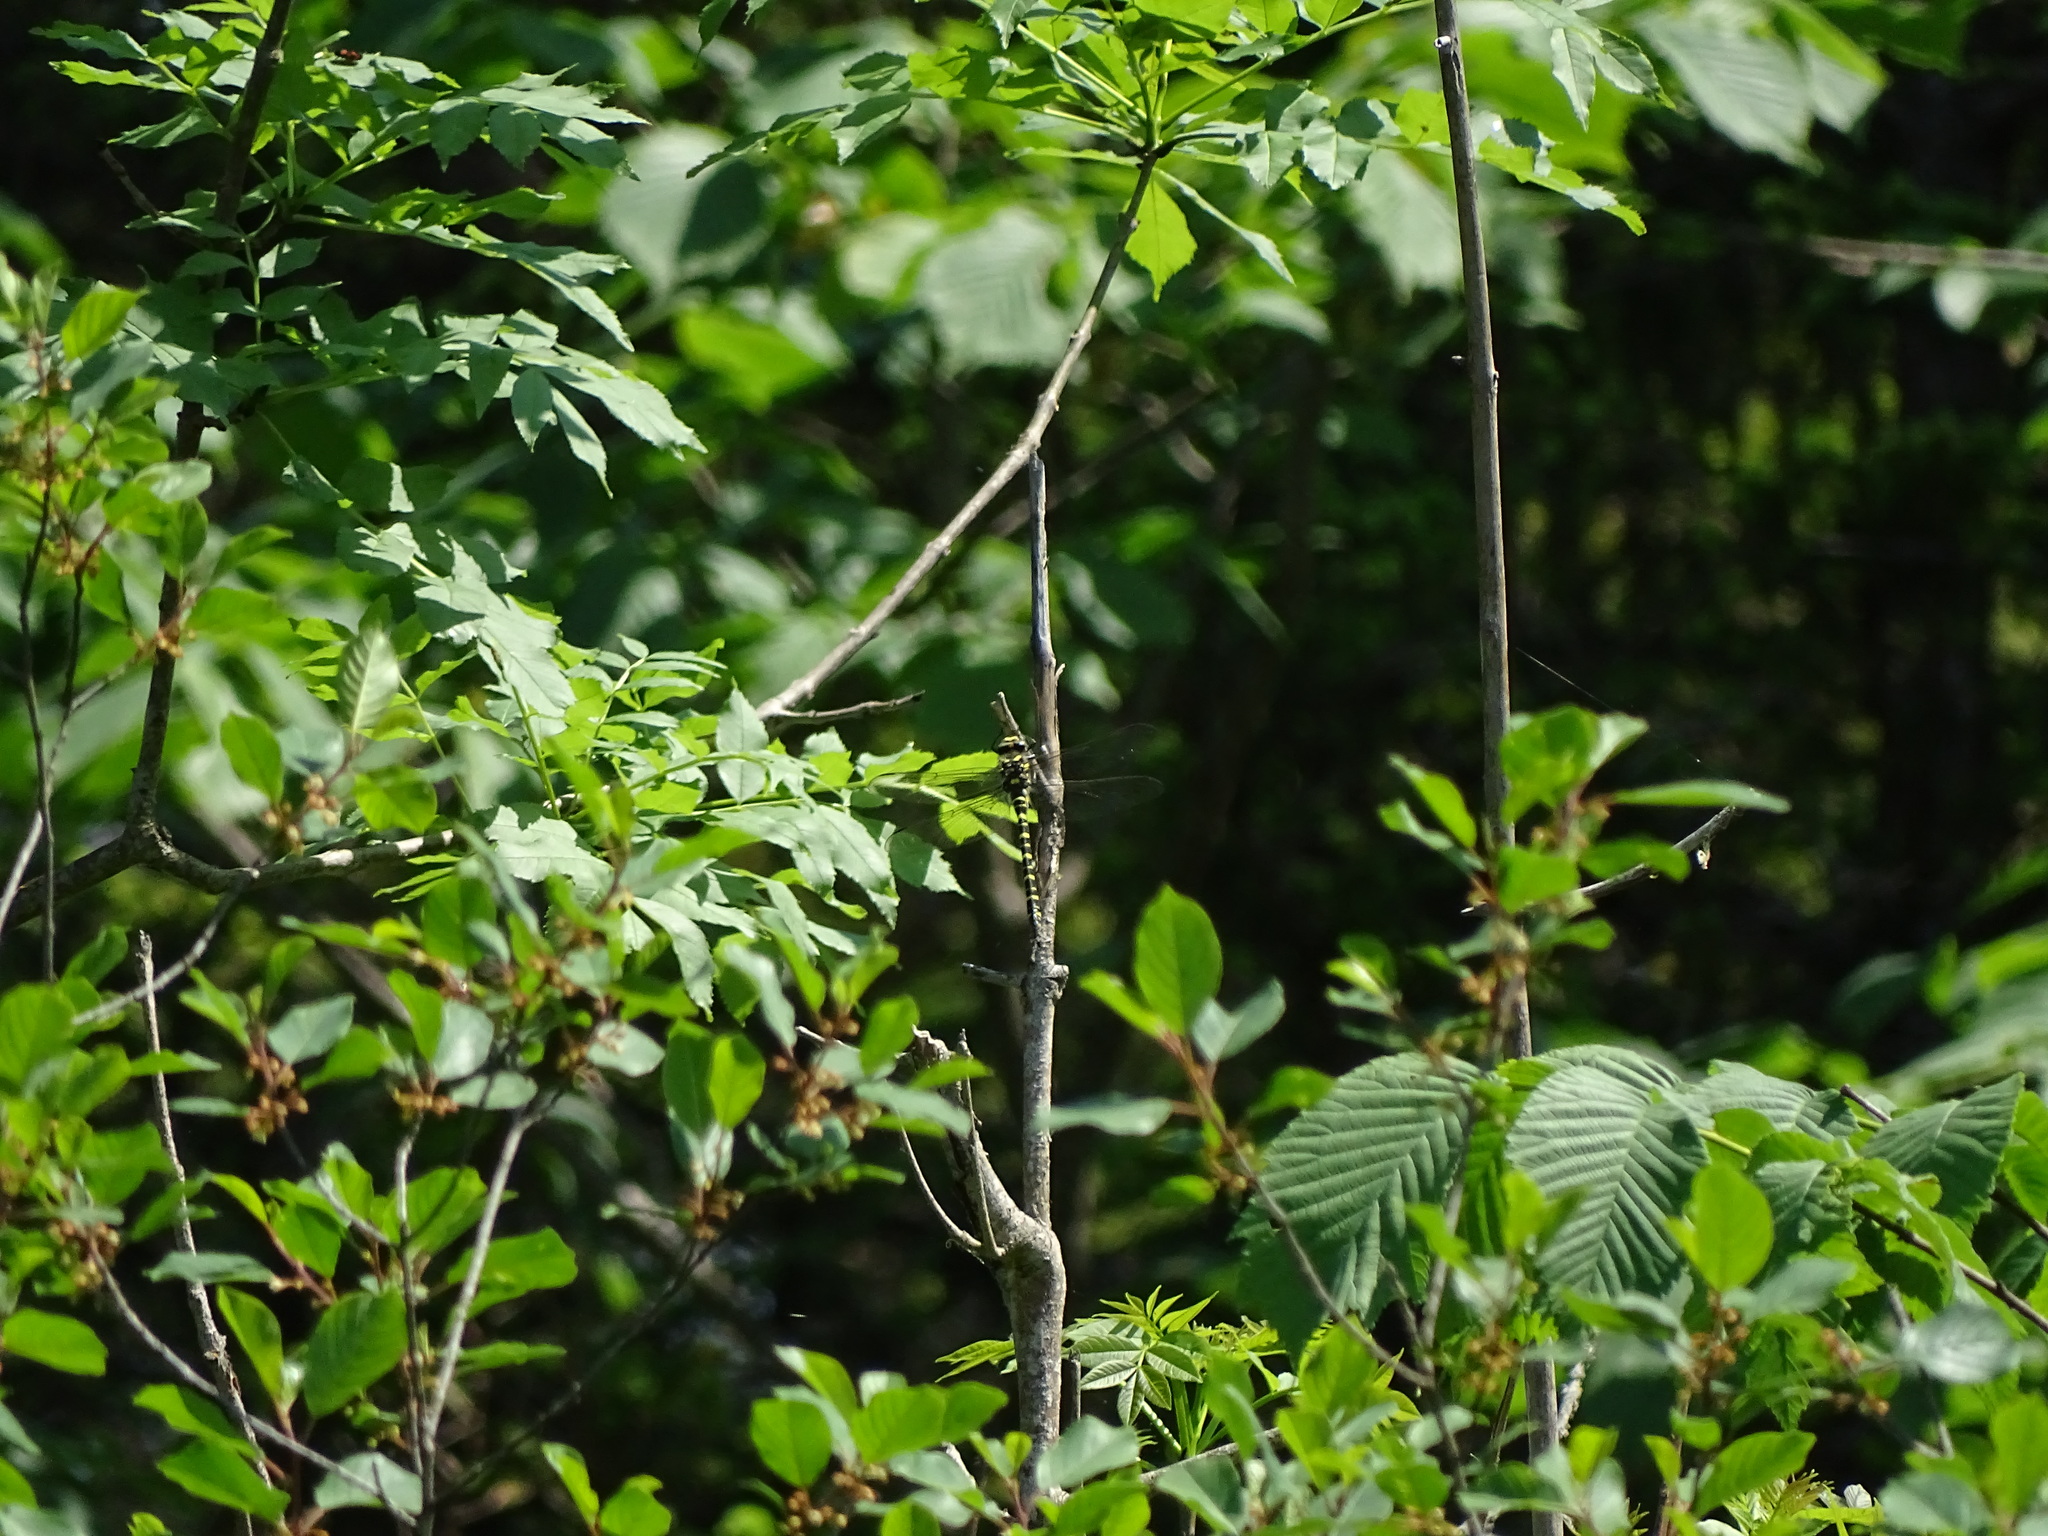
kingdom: Animalia
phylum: Arthropoda
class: Insecta
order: Odonata
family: Cordulegastridae
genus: Cordulegaster
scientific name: Cordulegaster boltonii
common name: Golden-ringed dragonfly
